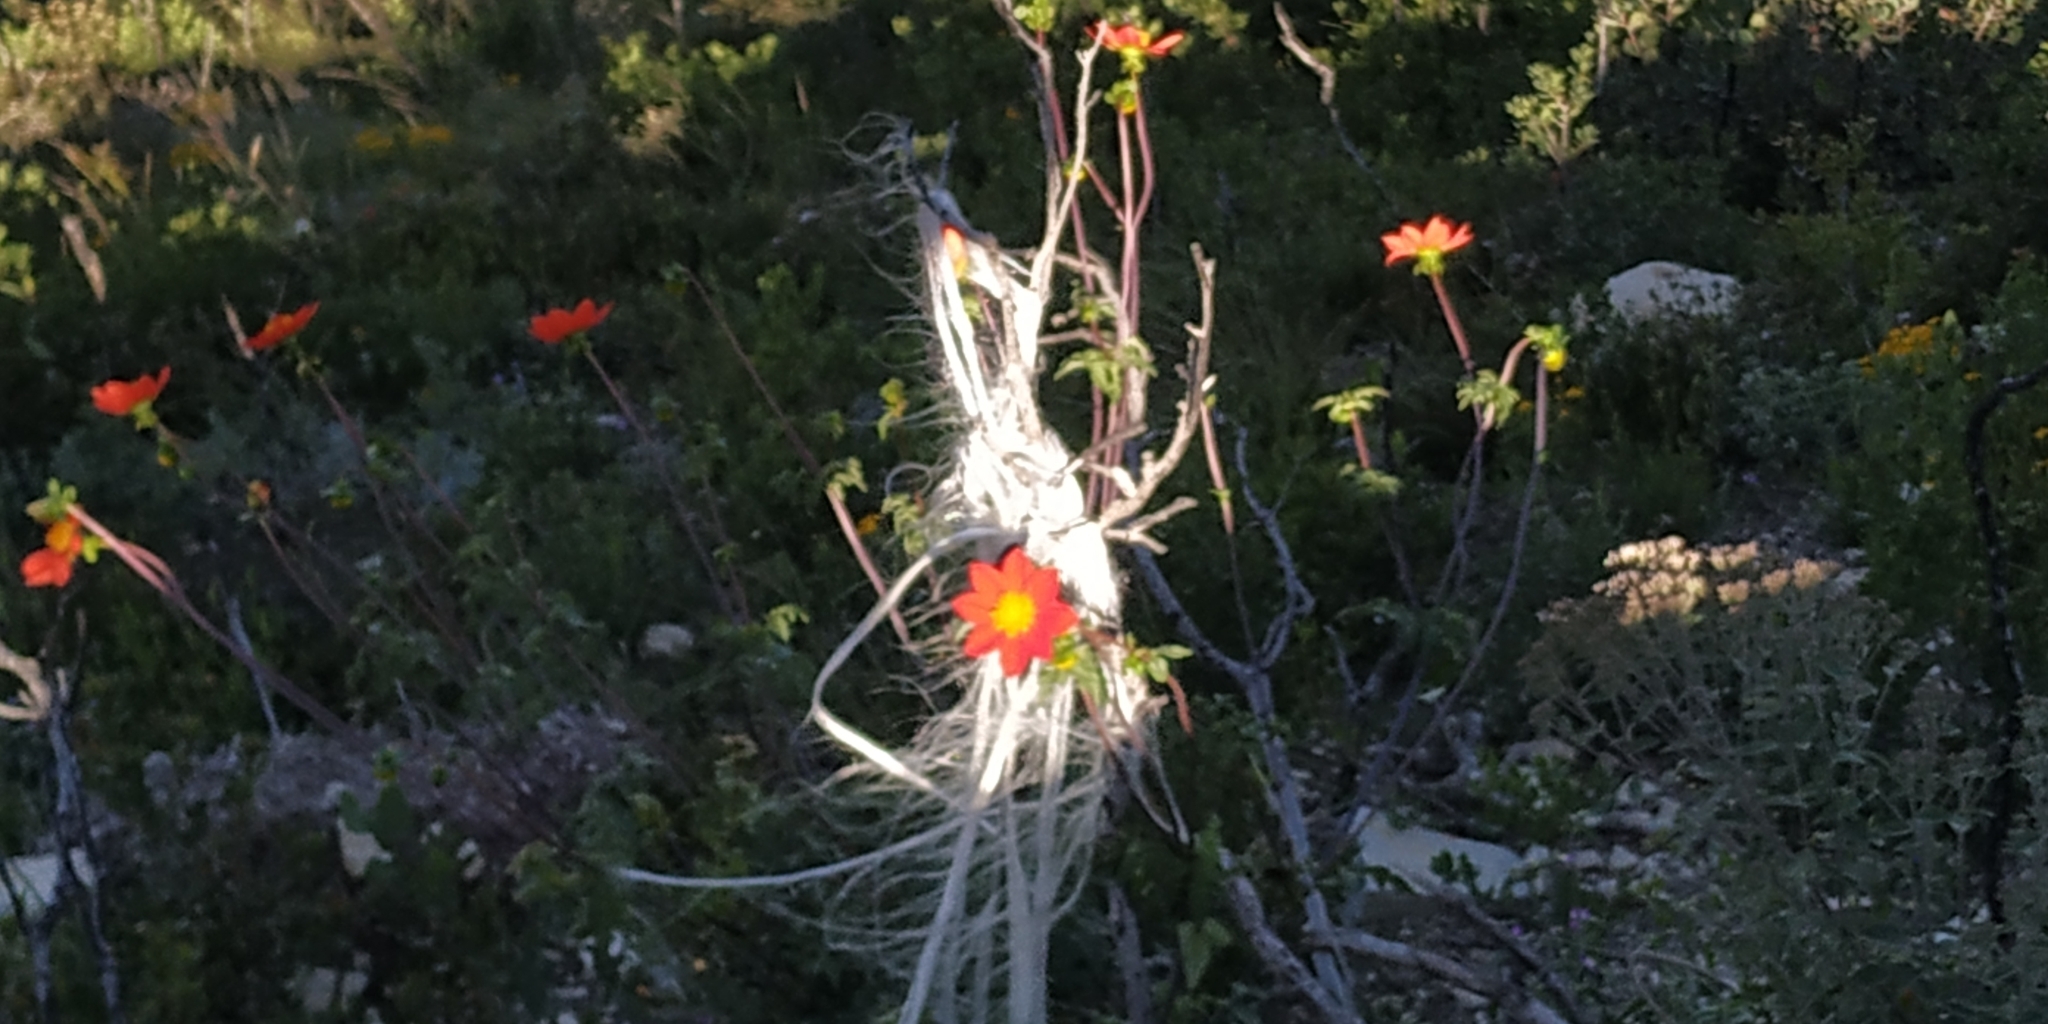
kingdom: Plantae
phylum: Tracheophyta
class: Magnoliopsida
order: Asterales
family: Asteraceae
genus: Dahlia
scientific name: Dahlia coccinea
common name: Red dahlia
